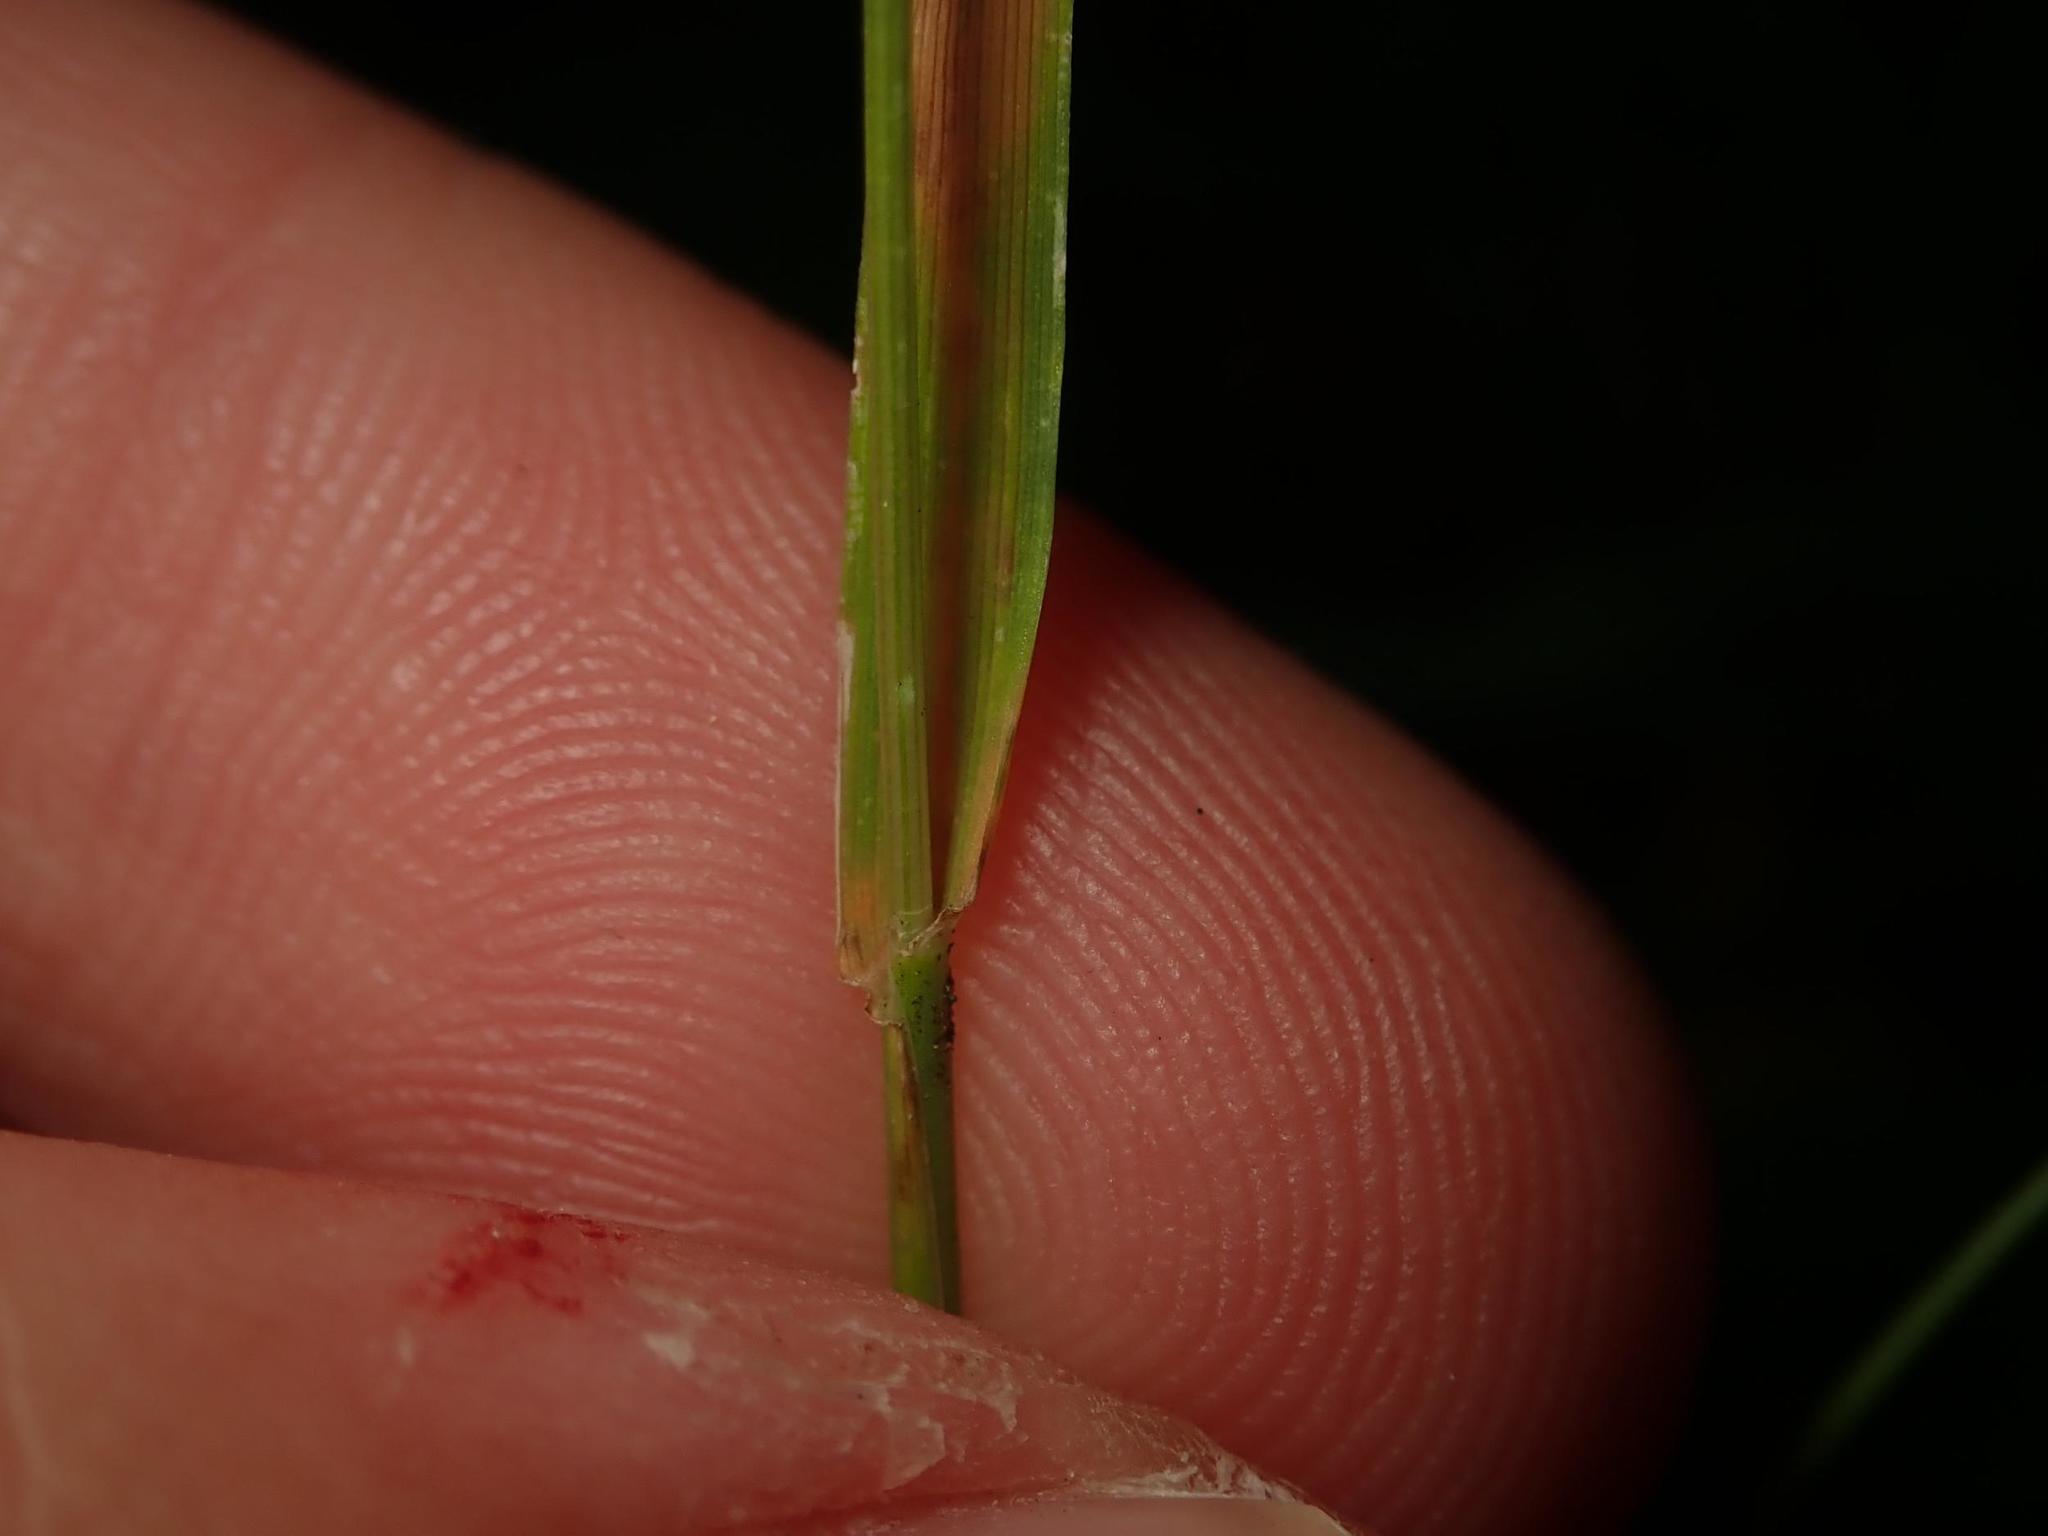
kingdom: Plantae
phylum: Tracheophyta
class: Liliopsida
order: Poales
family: Poaceae
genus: Lolium
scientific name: Lolium perenne
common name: Perennial ryegrass
